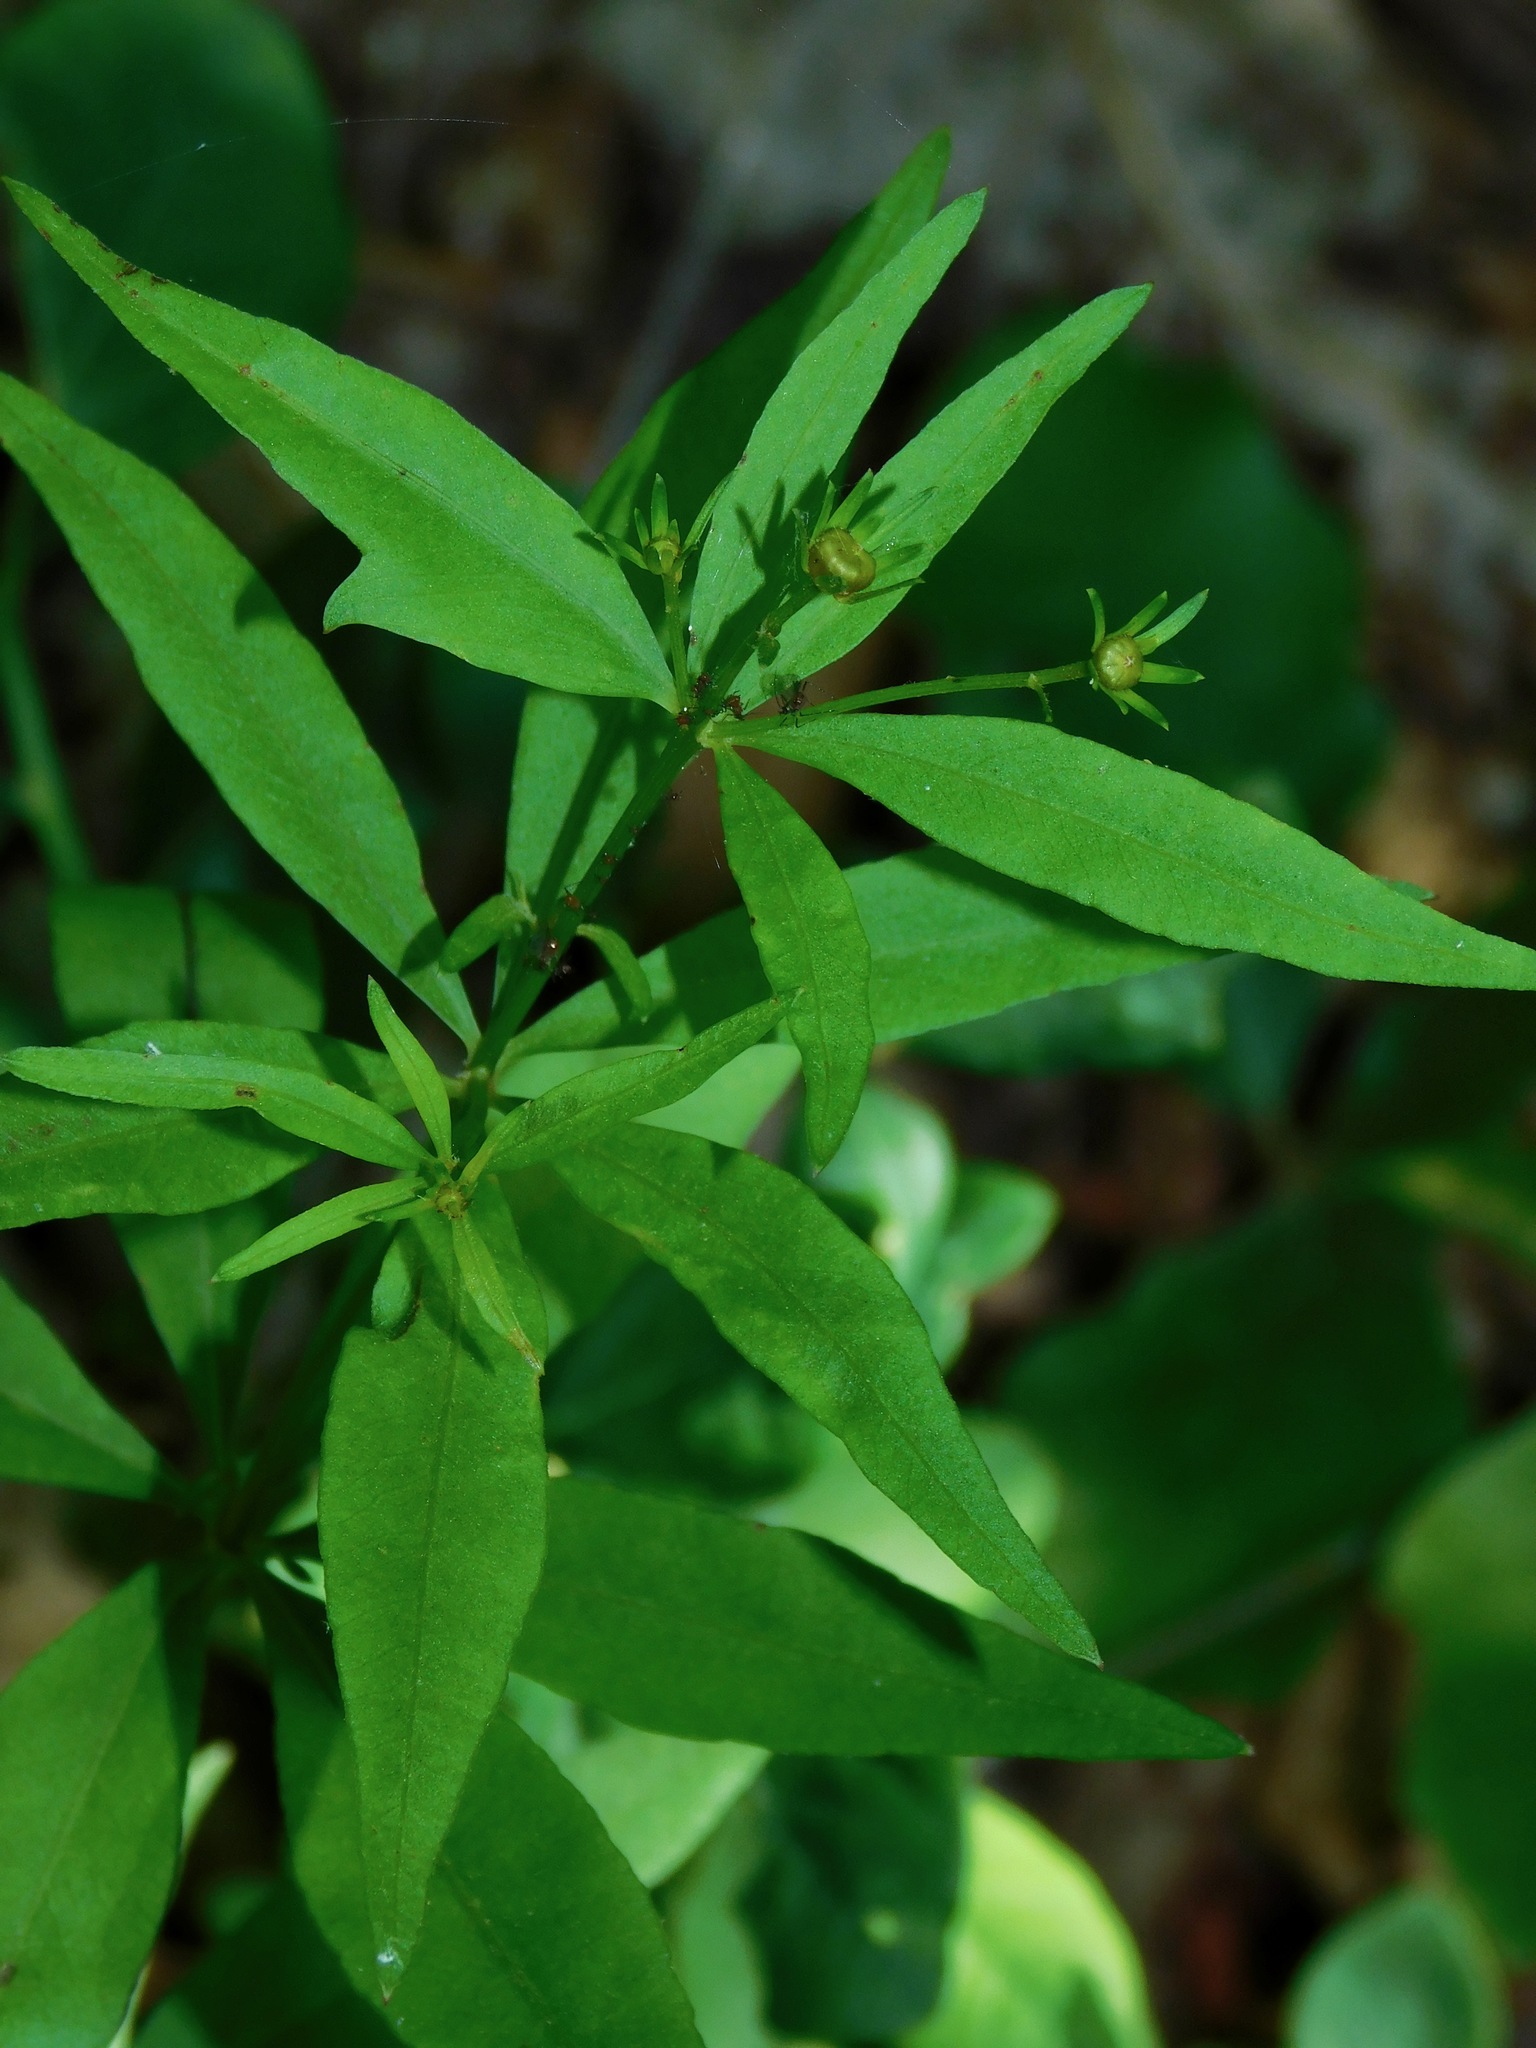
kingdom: Plantae
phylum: Tracheophyta
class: Magnoliopsida
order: Asterales
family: Asteraceae
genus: Coreopsis
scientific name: Coreopsis major
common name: Forest tickseed
